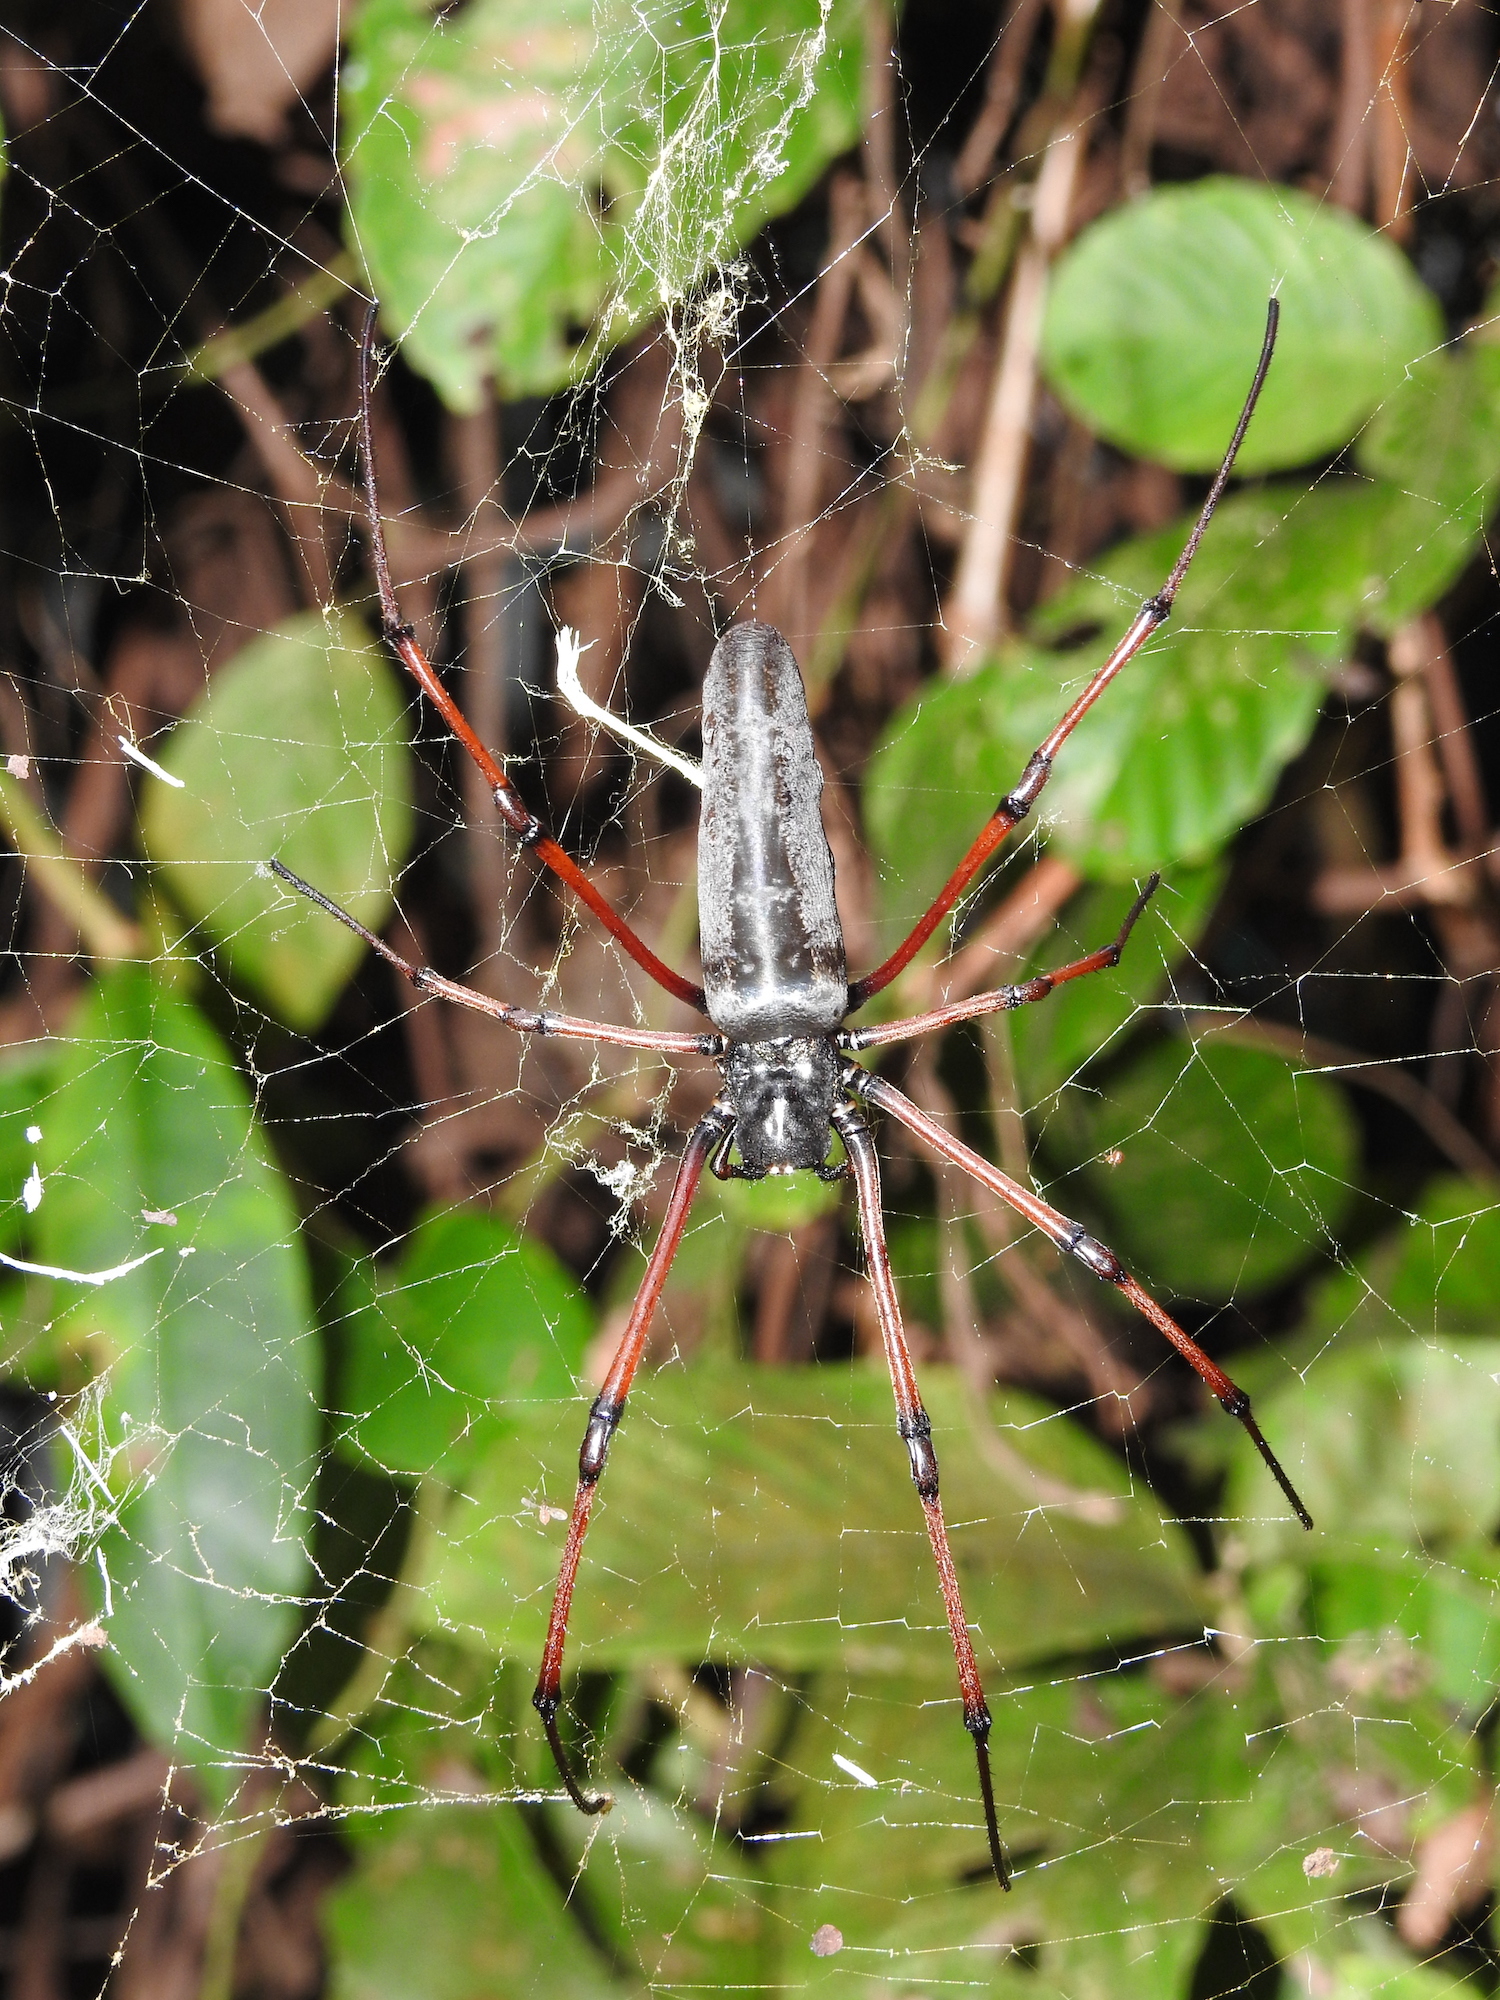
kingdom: Animalia
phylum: Arthropoda
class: Arachnida
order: Araneae
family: Araneidae
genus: Nephila
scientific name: Nephila kuhli
